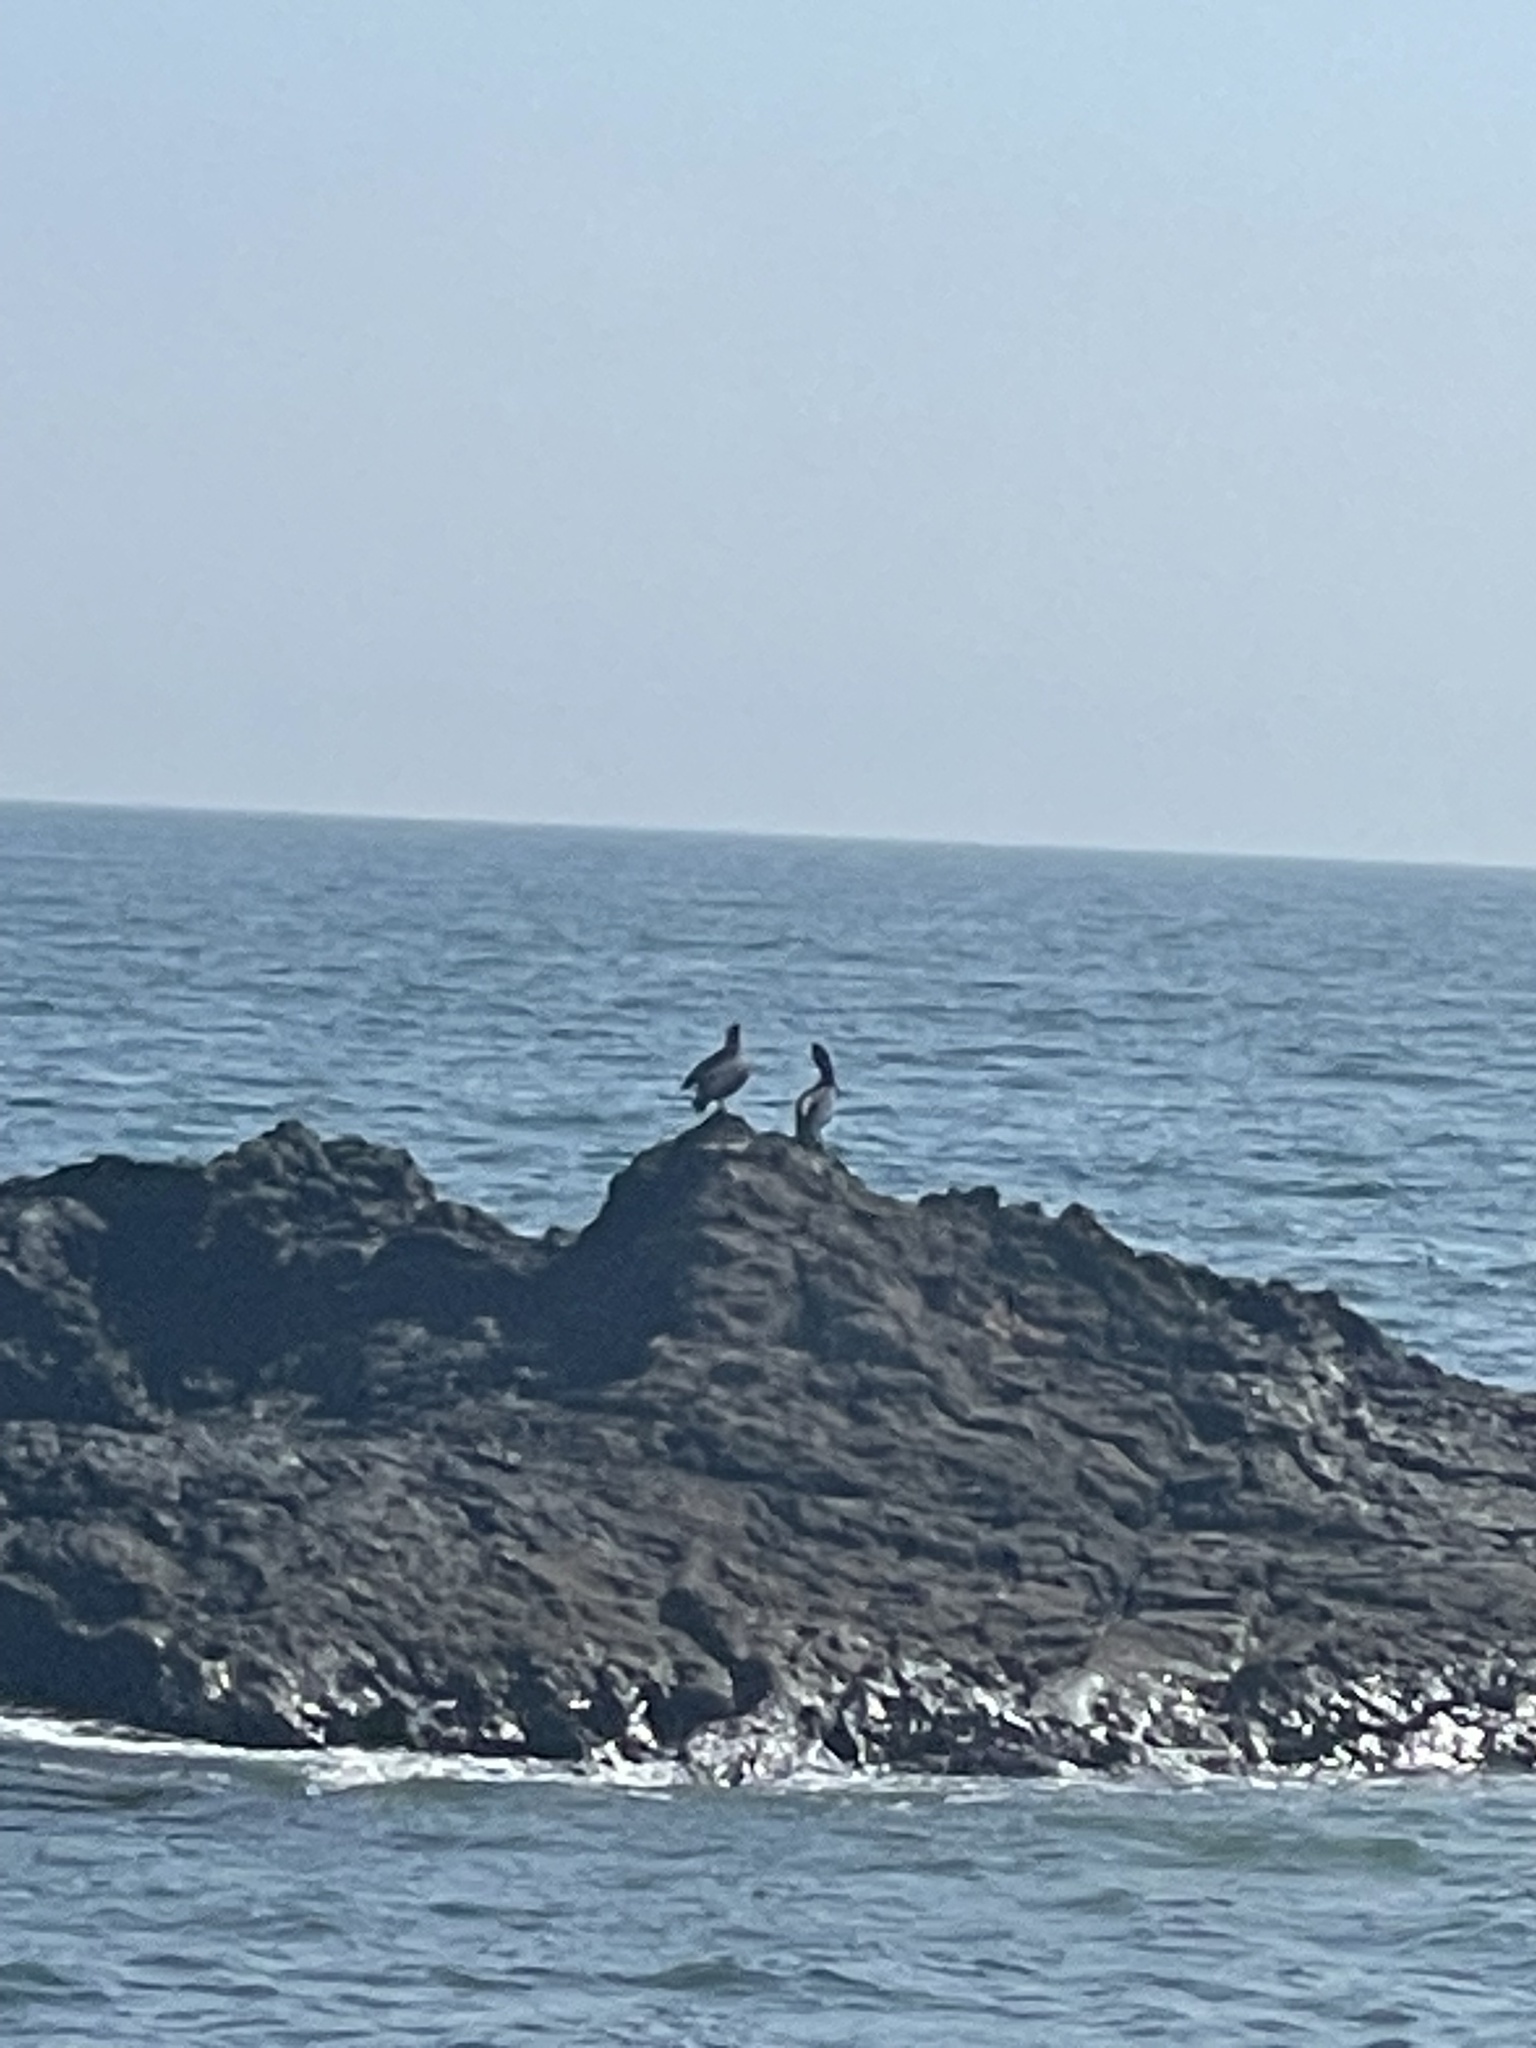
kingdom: Animalia
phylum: Chordata
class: Aves
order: Pelecaniformes
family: Pelecanidae
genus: Pelecanus
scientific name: Pelecanus occidentalis
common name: Brown pelican
